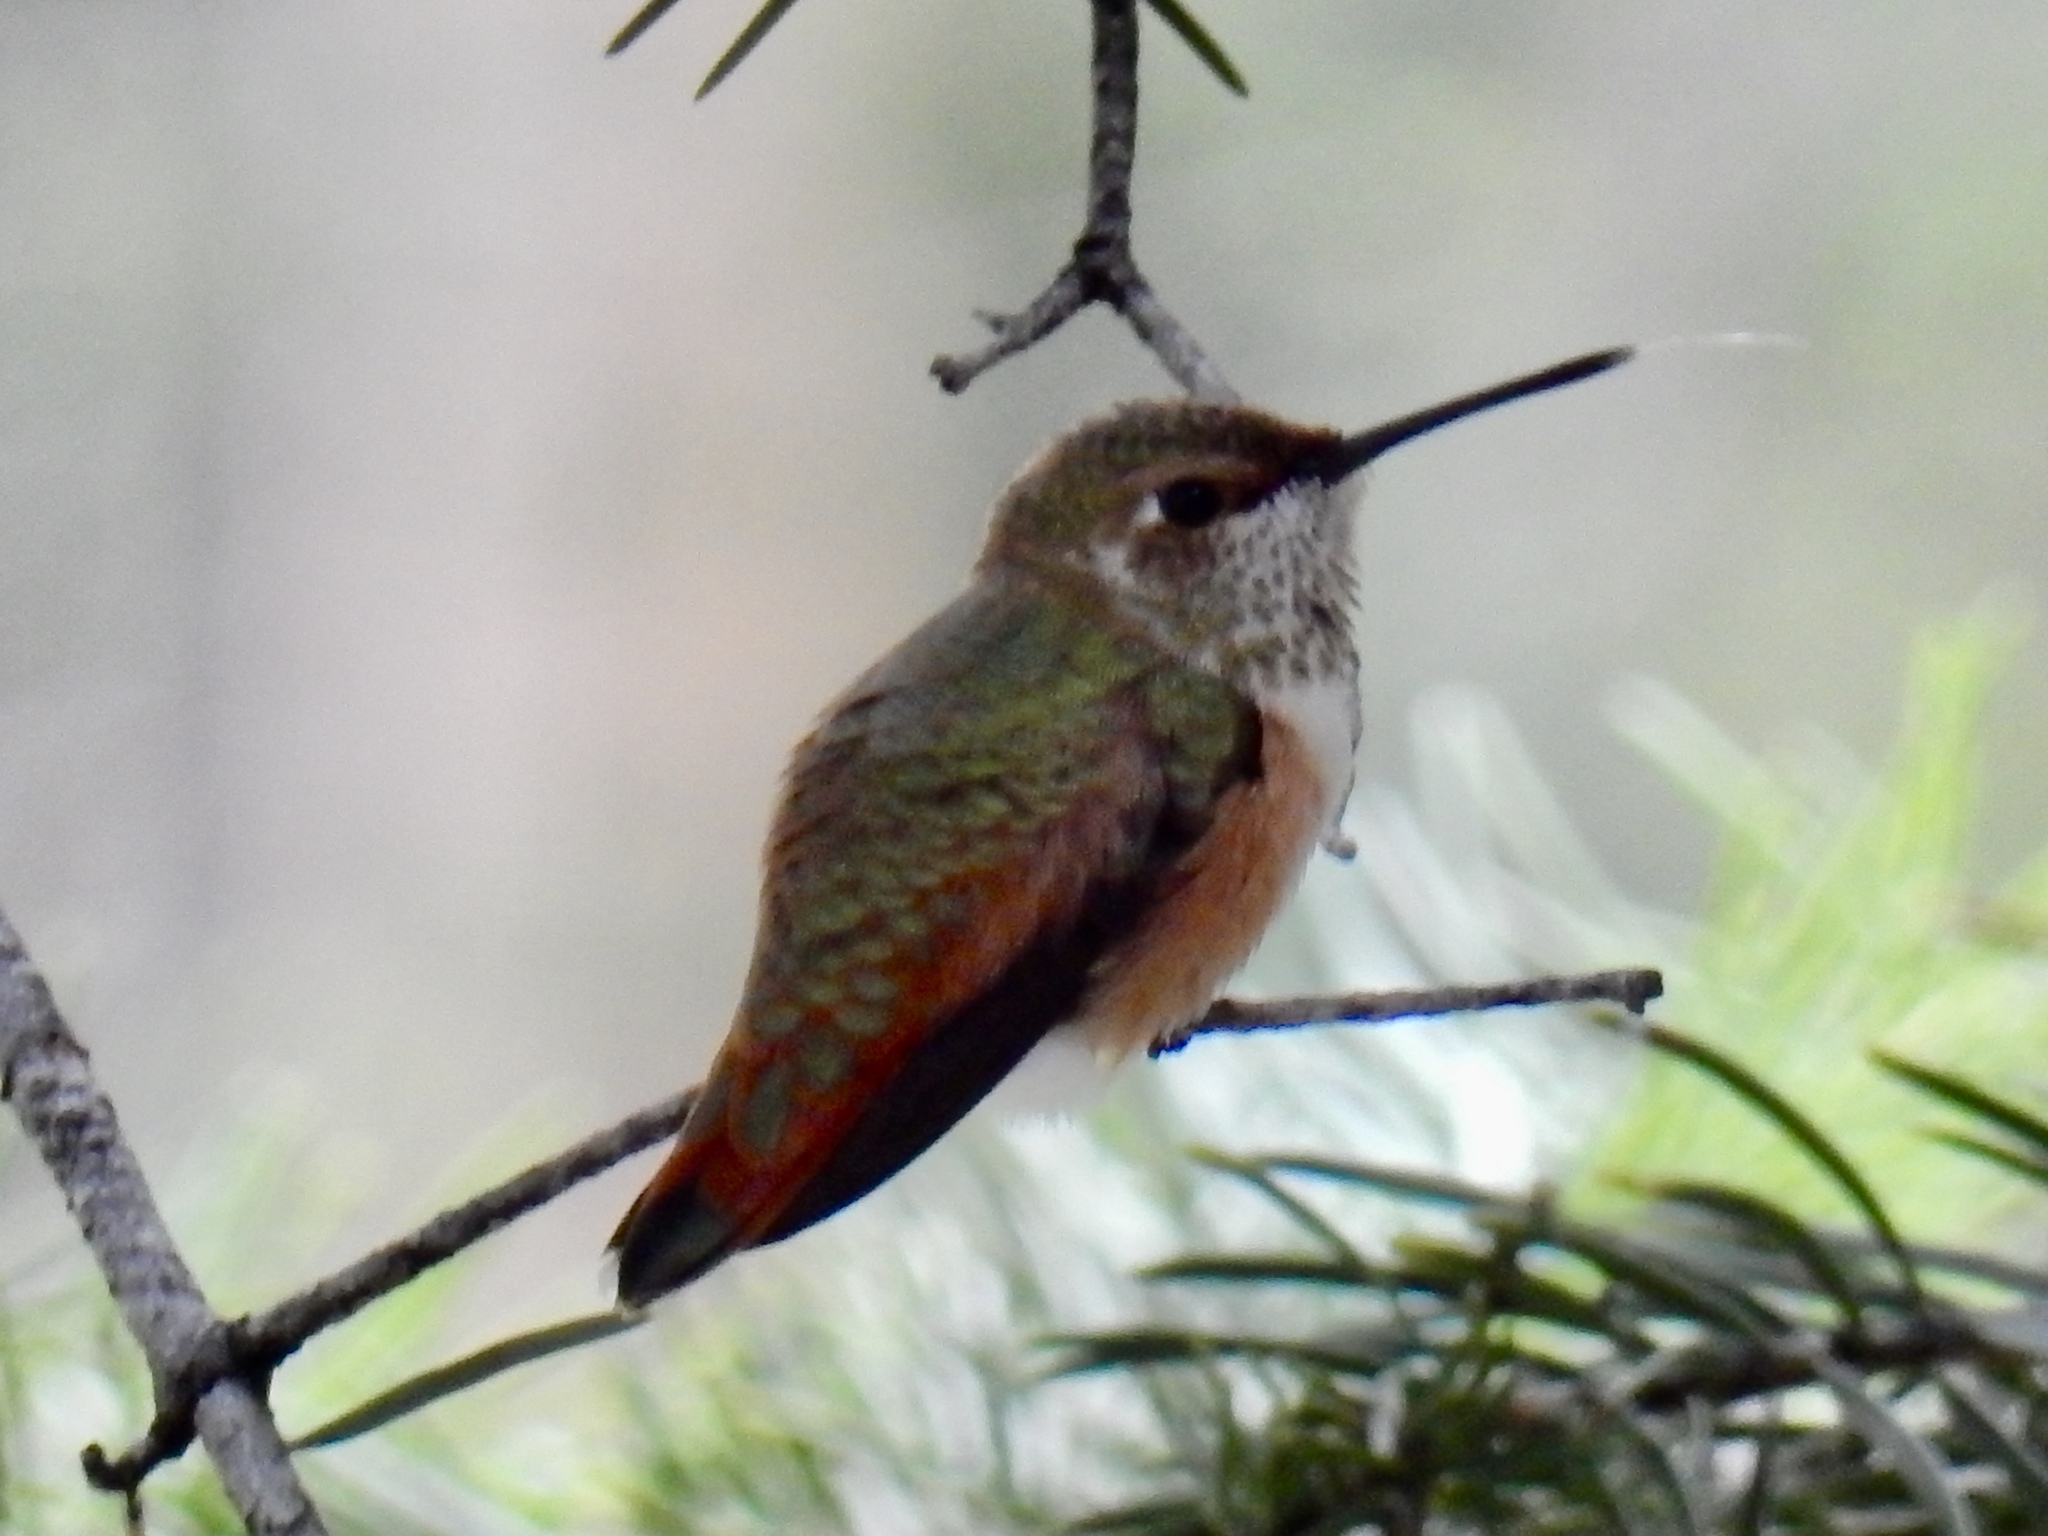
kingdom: Animalia
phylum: Chordata
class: Aves
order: Apodiformes
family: Trochilidae
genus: Selasphorus
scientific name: Selasphorus rufus
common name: Rufous hummingbird
